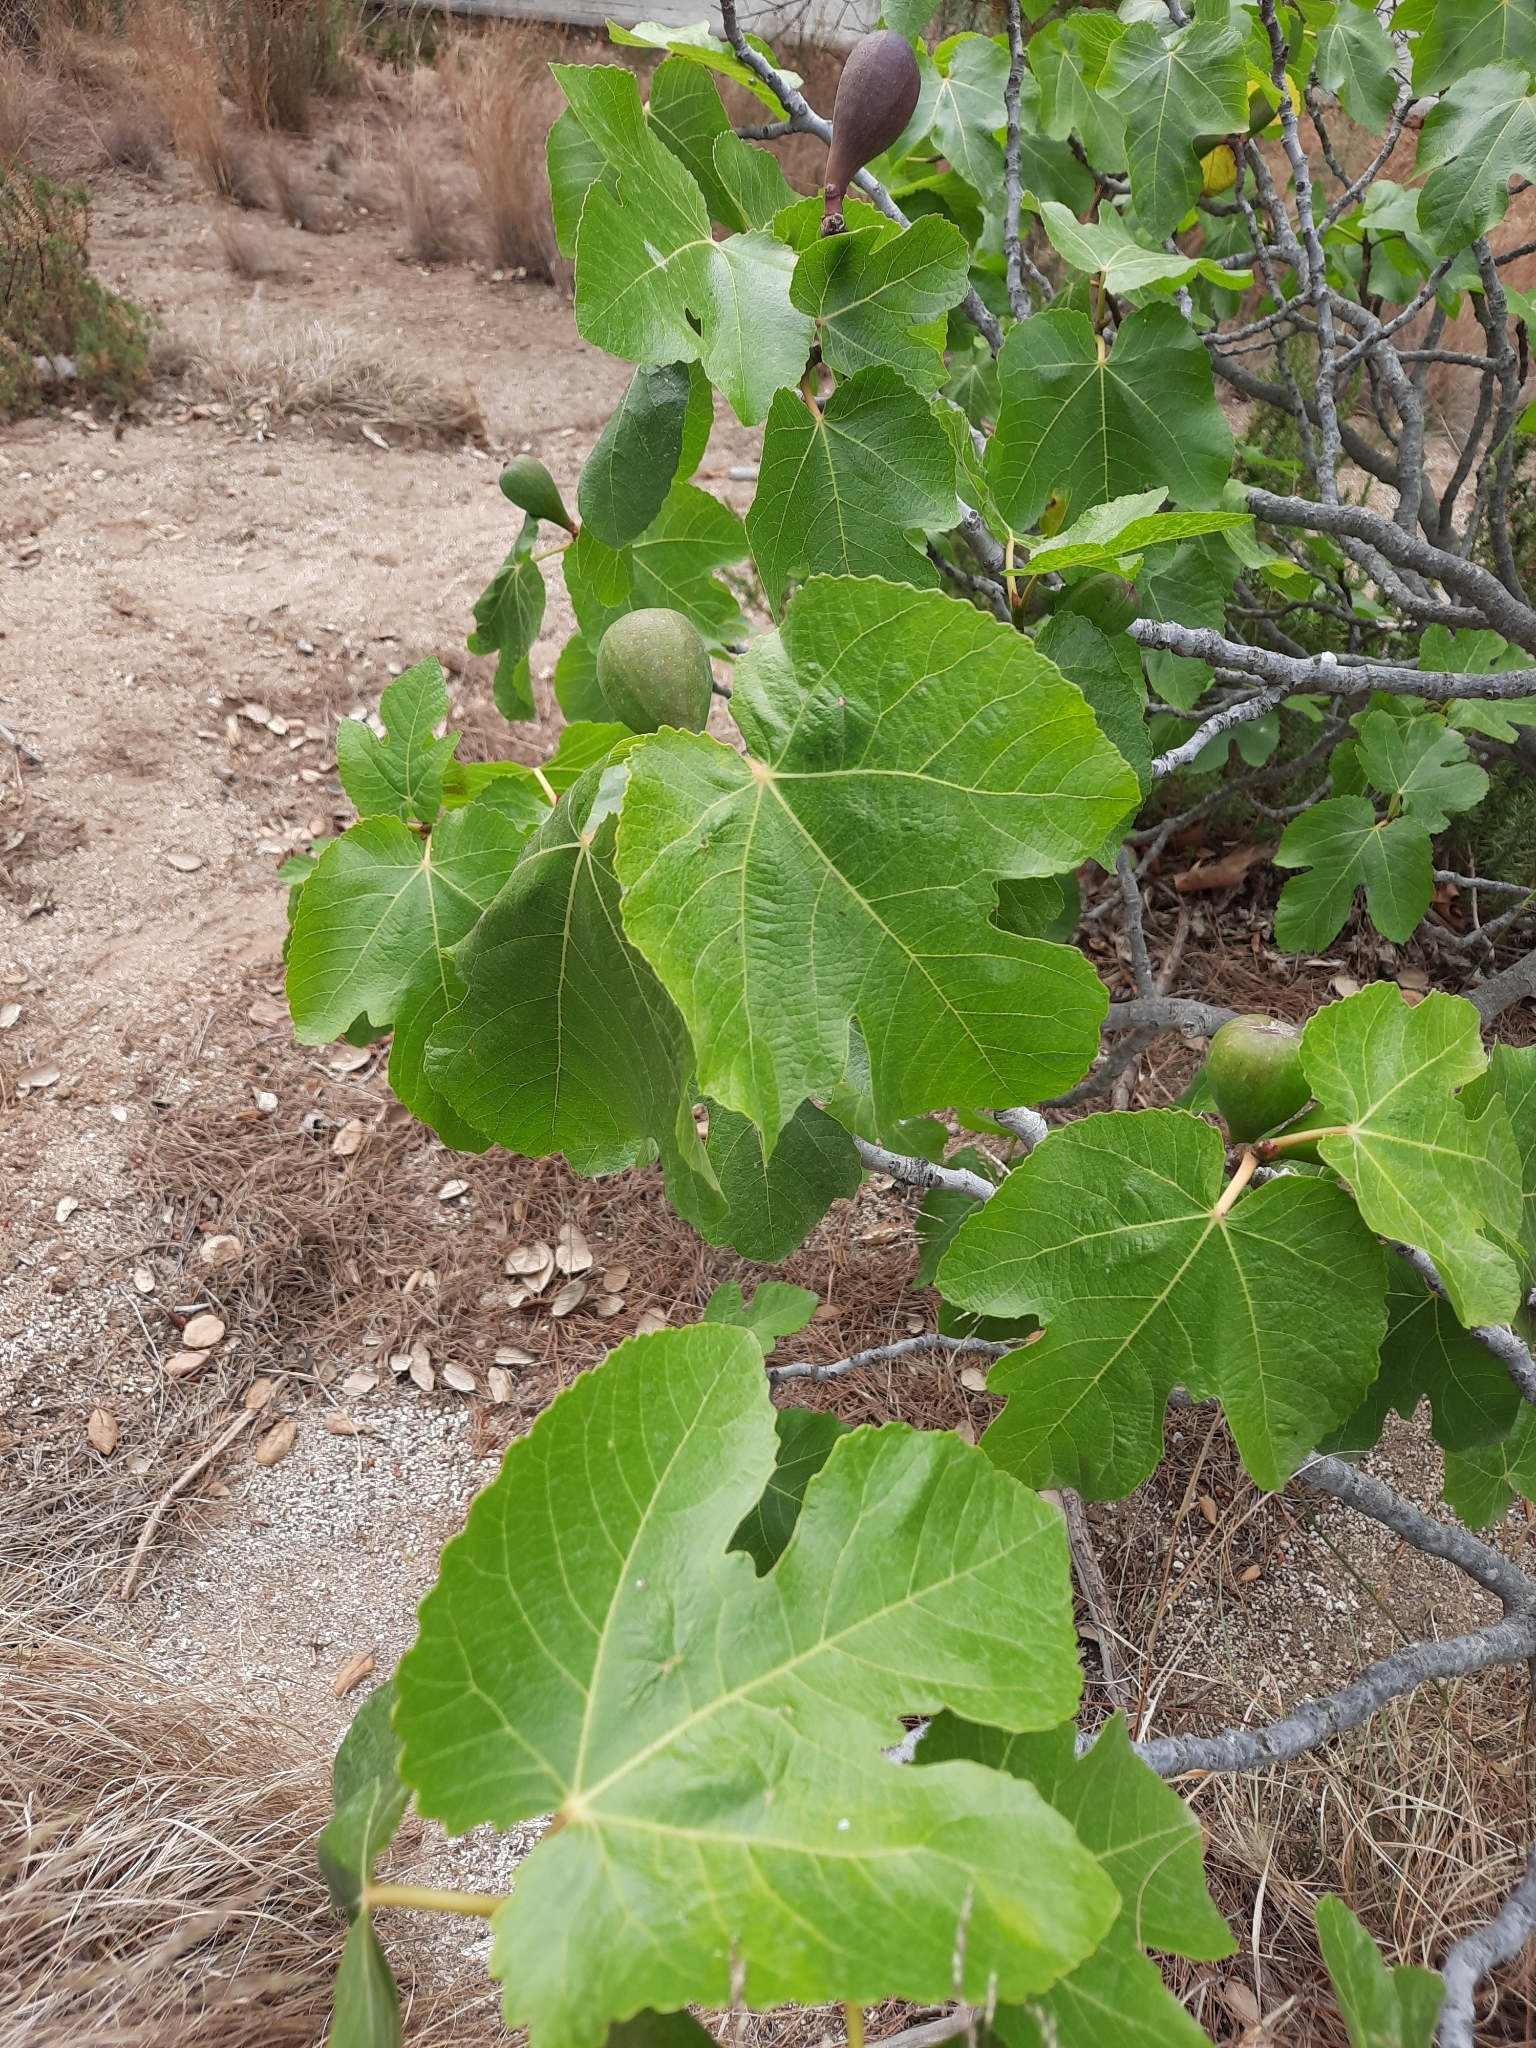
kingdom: Plantae
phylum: Tracheophyta
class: Magnoliopsida
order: Rosales
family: Moraceae
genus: Ficus
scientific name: Ficus carica
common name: Fig
